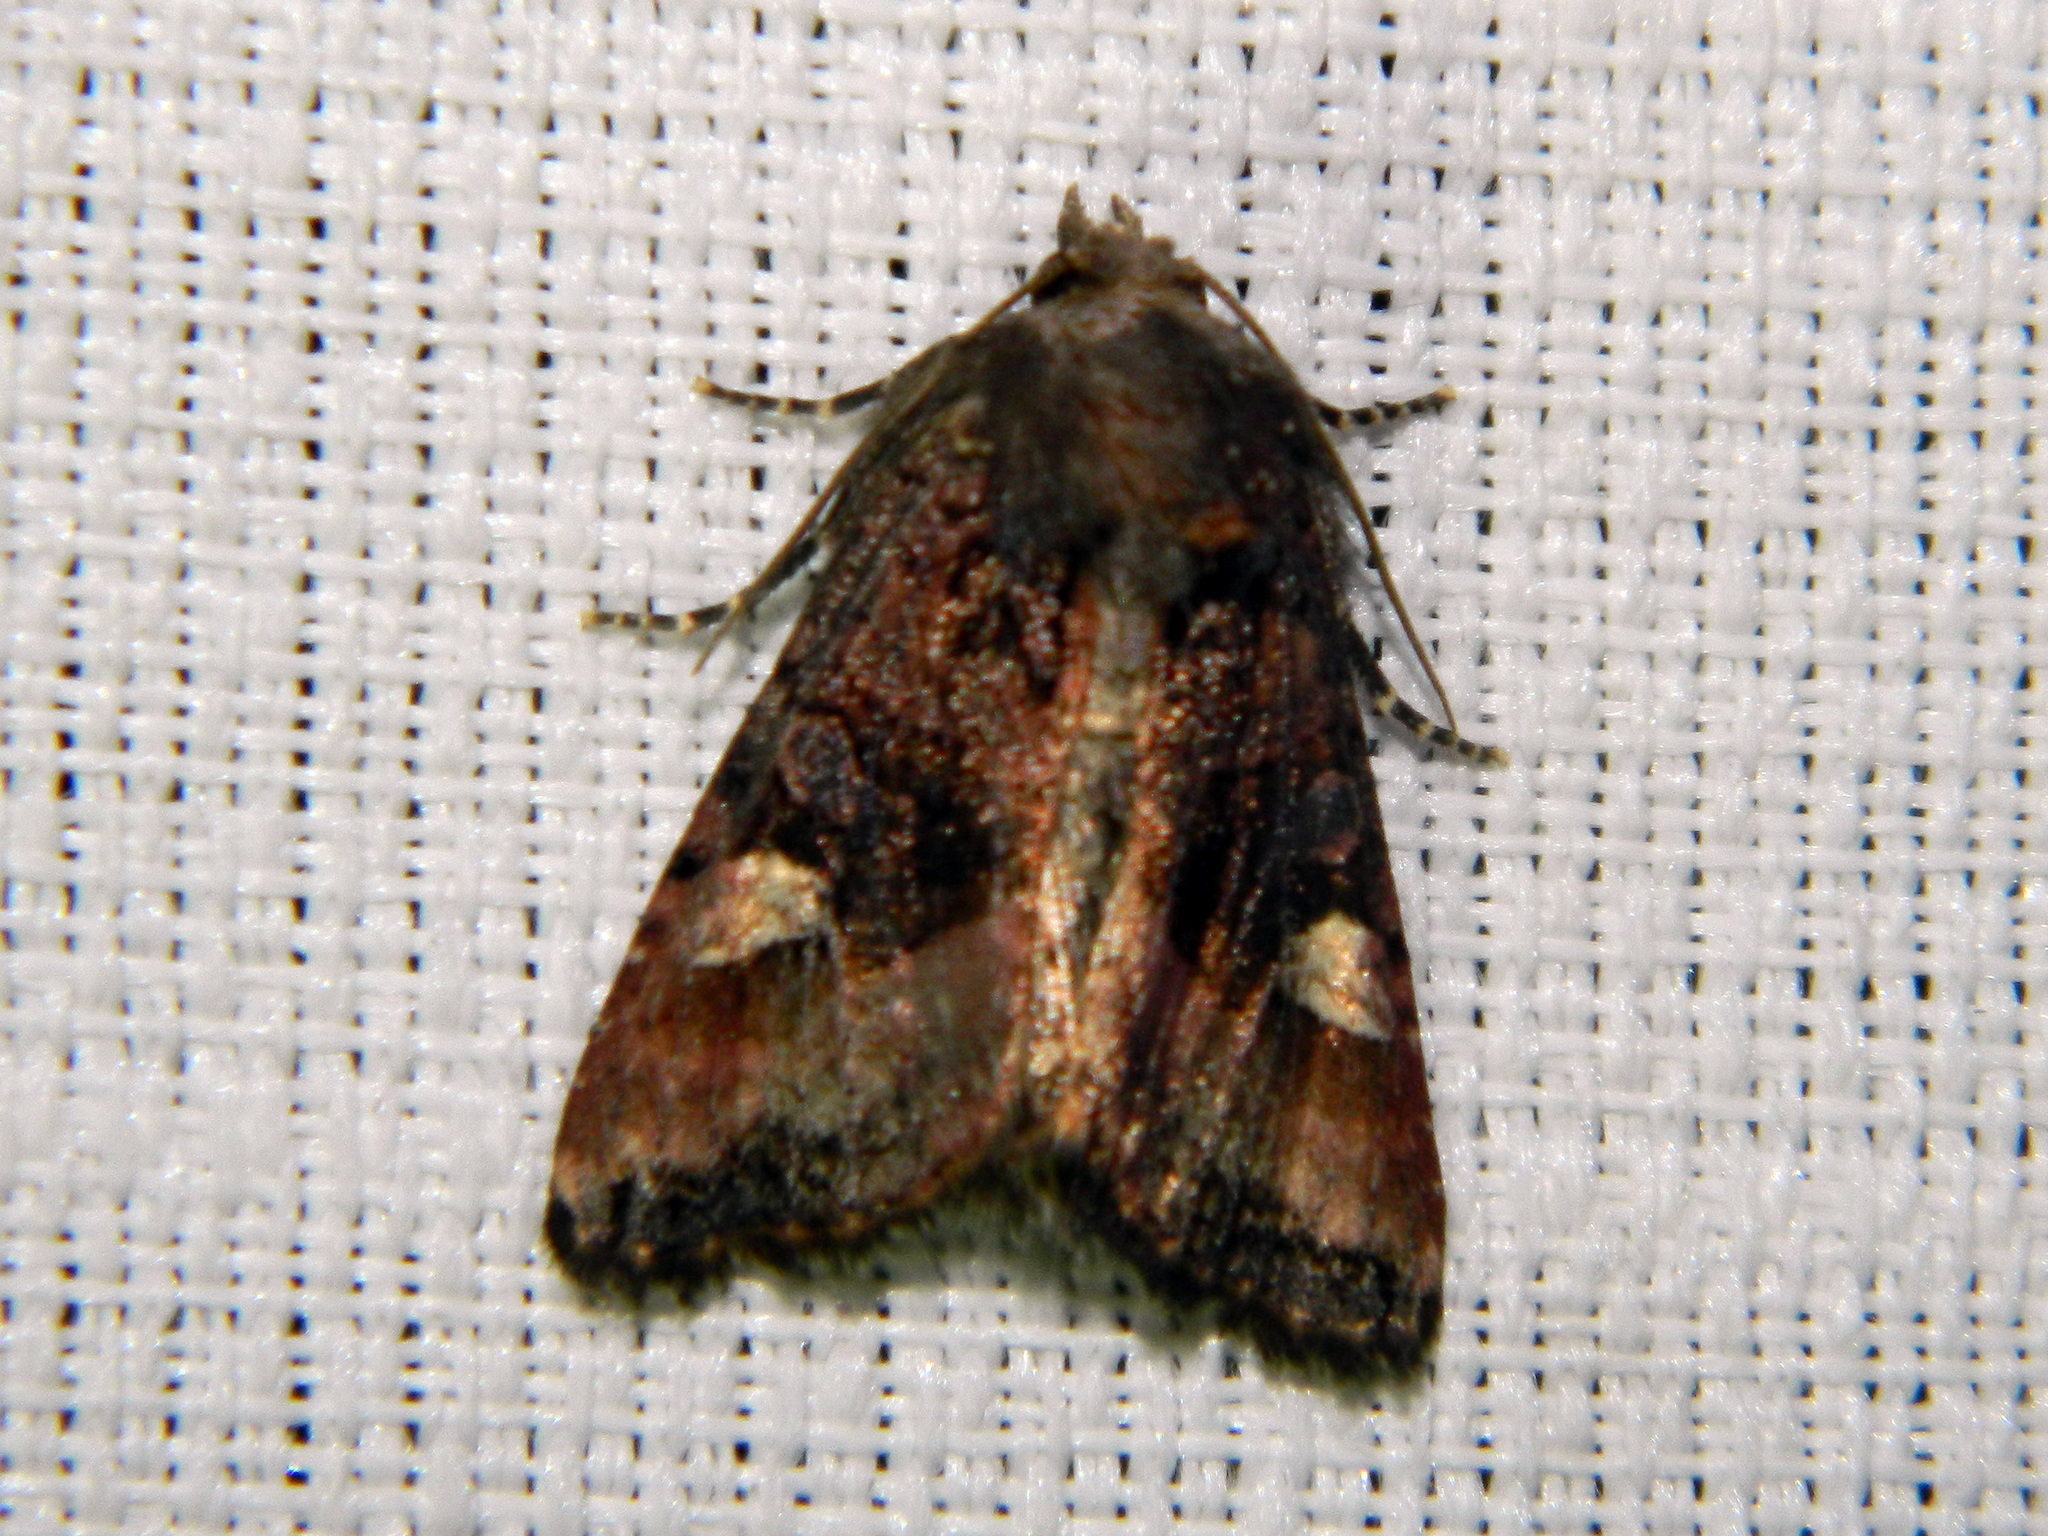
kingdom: Animalia
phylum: Arthropoda
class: Insecta
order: Lepidoptera
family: Noctuidae
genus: Euplexia
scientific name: Euplexia benesimilis
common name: American angle shades
